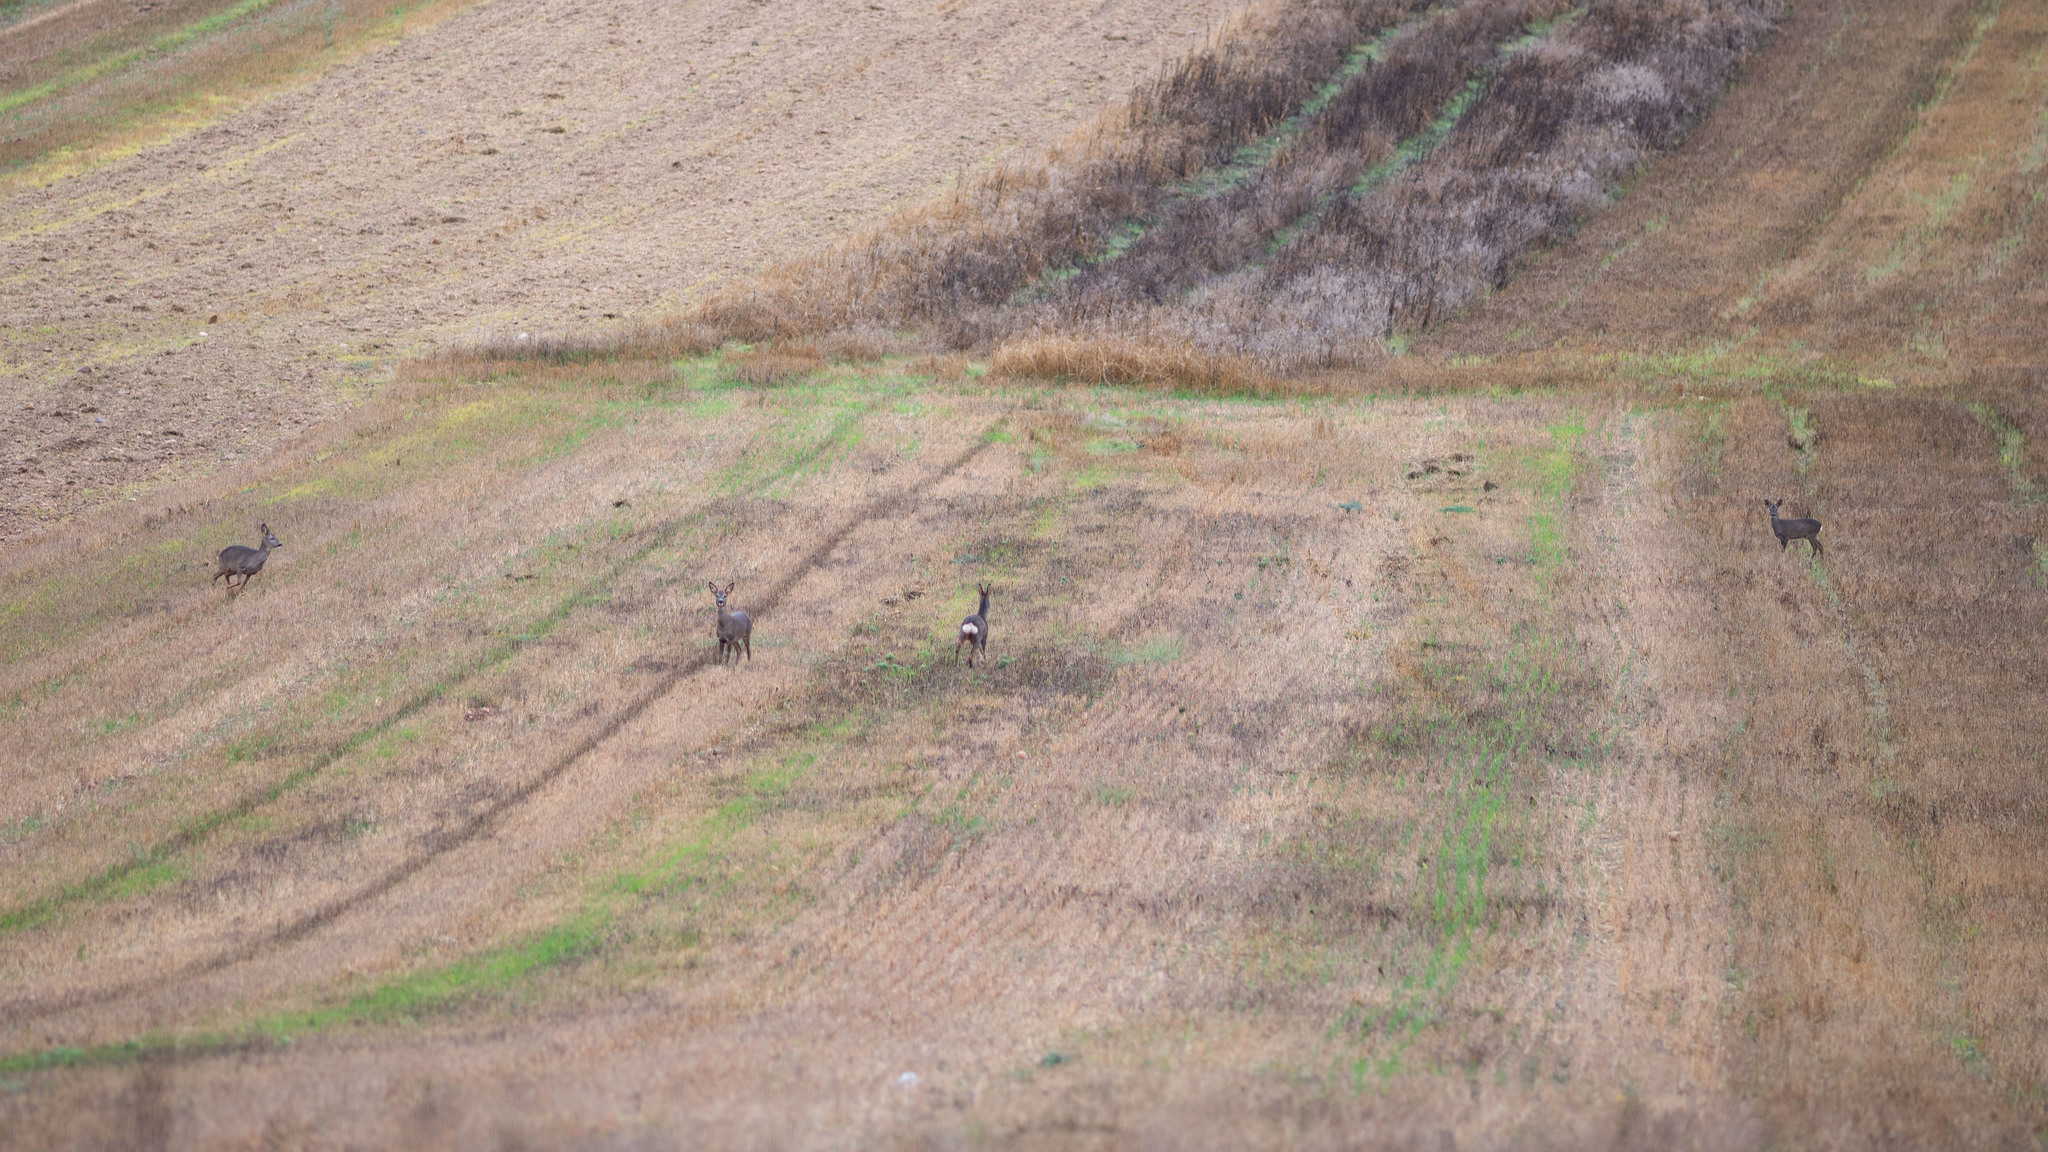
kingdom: Animalia
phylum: Chordata
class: Mammalia
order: Artiodactyla
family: Cervidae
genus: Capreolus
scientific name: Capreolus capreolus
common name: Western roe deer
